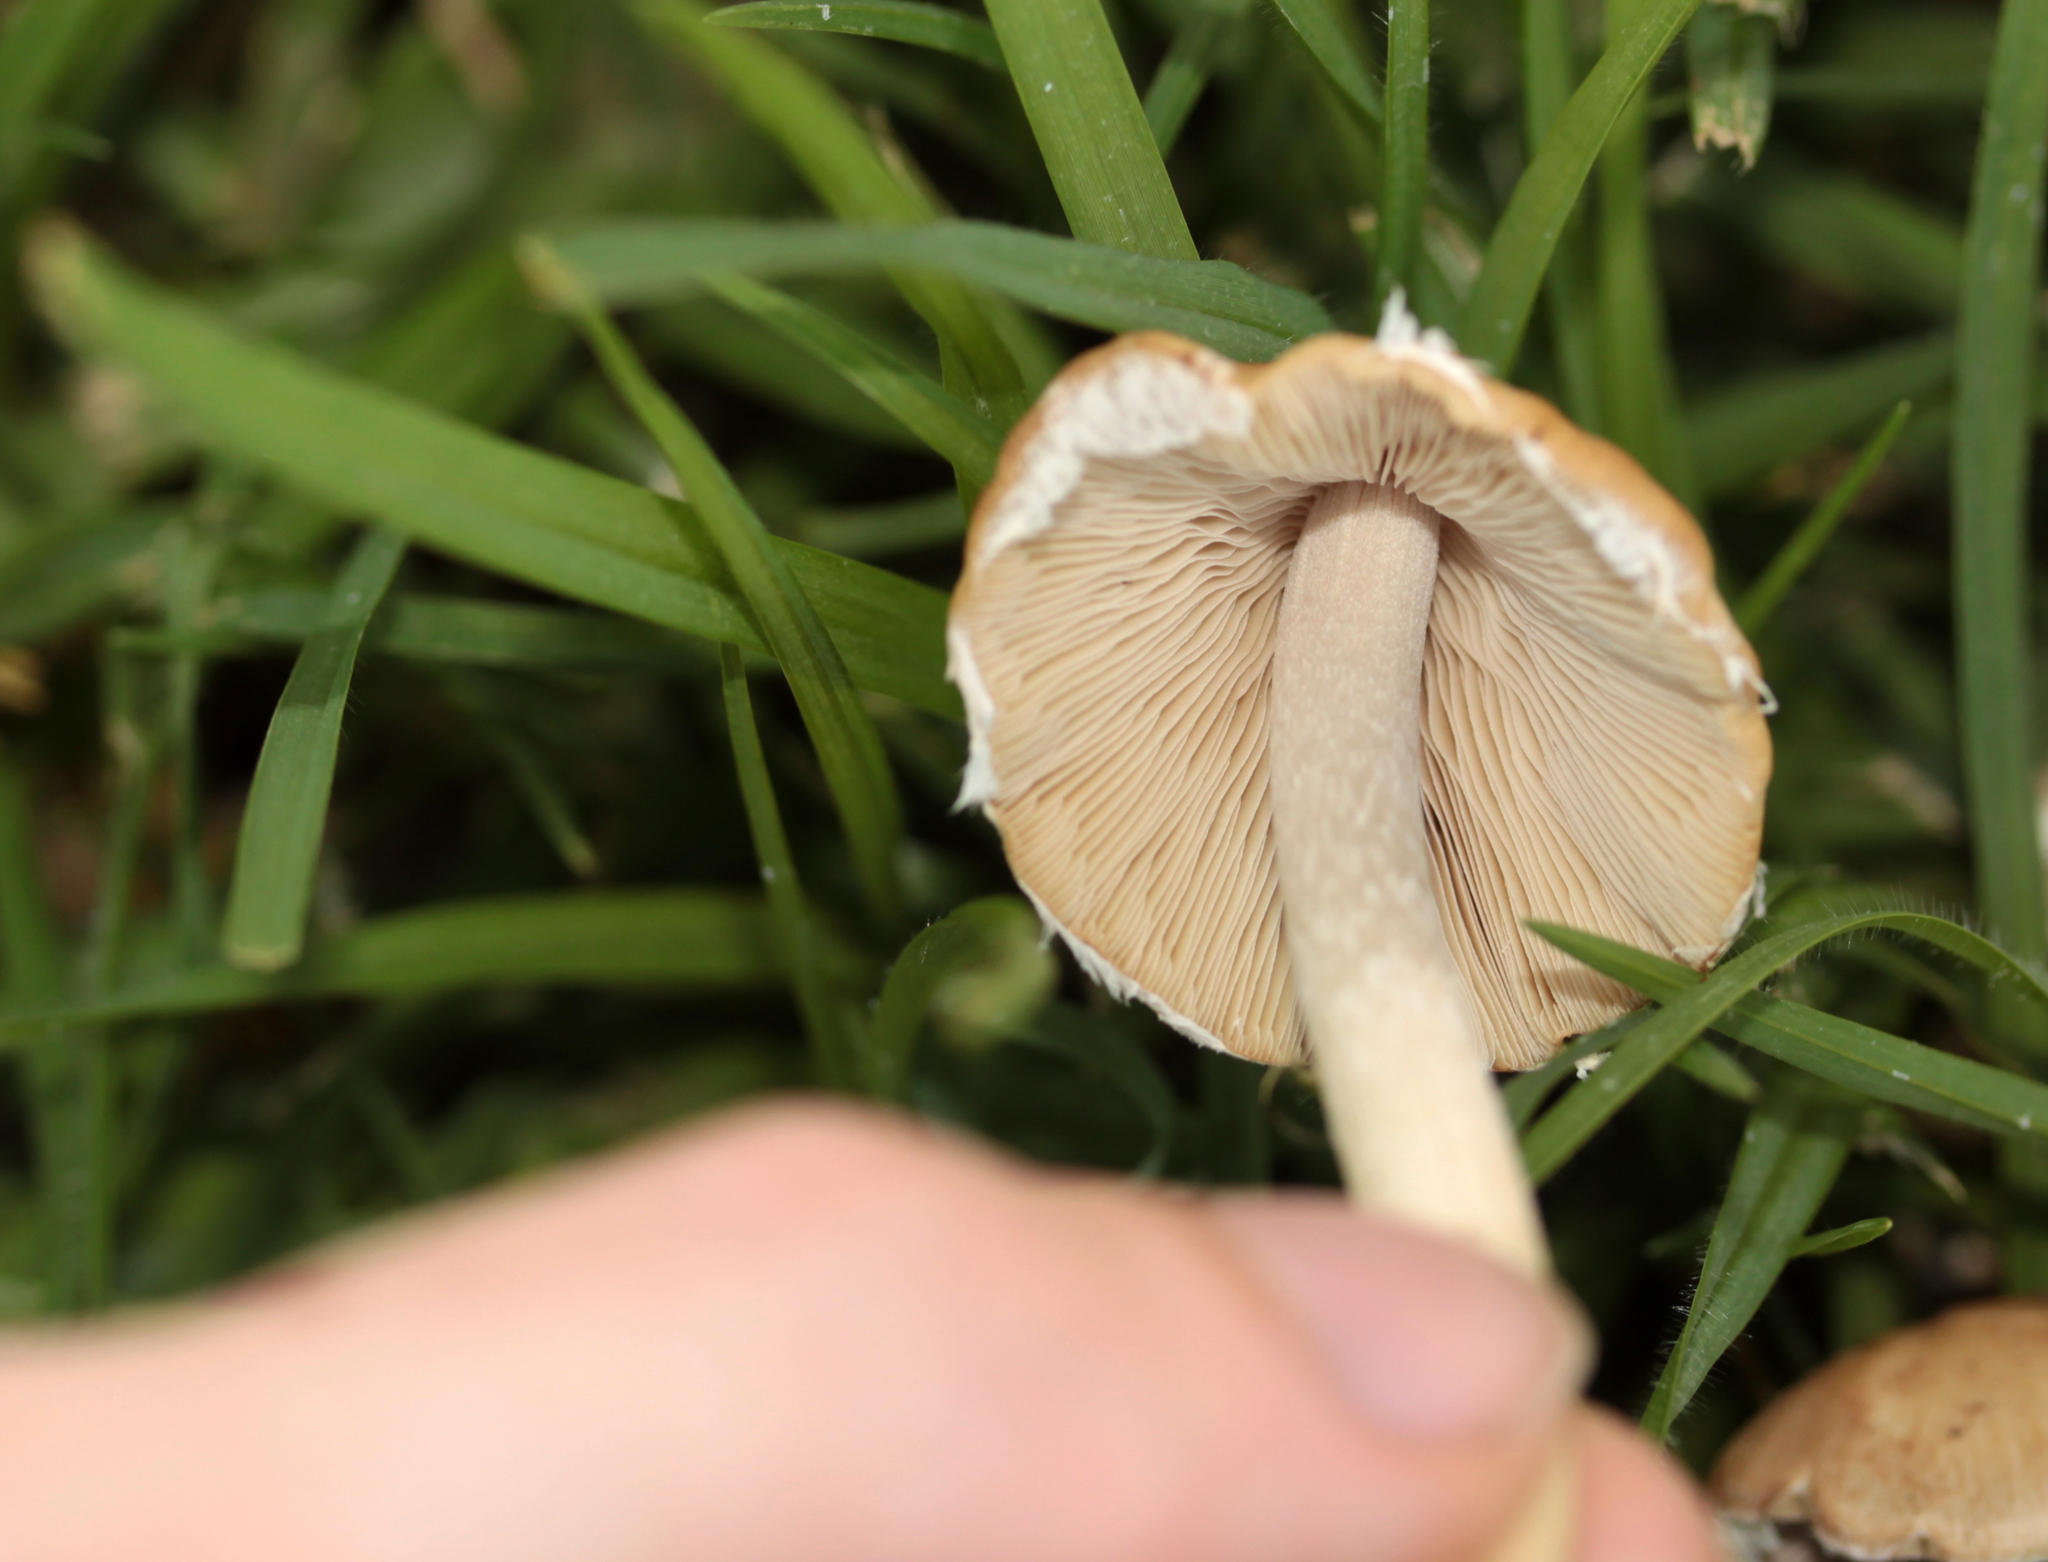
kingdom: Fungi
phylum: Basidiomycota
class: Agaricomycetes
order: Agaricales
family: Psathyrellaceae
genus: Candolleomyces
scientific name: Candolleomyces candolleanus
